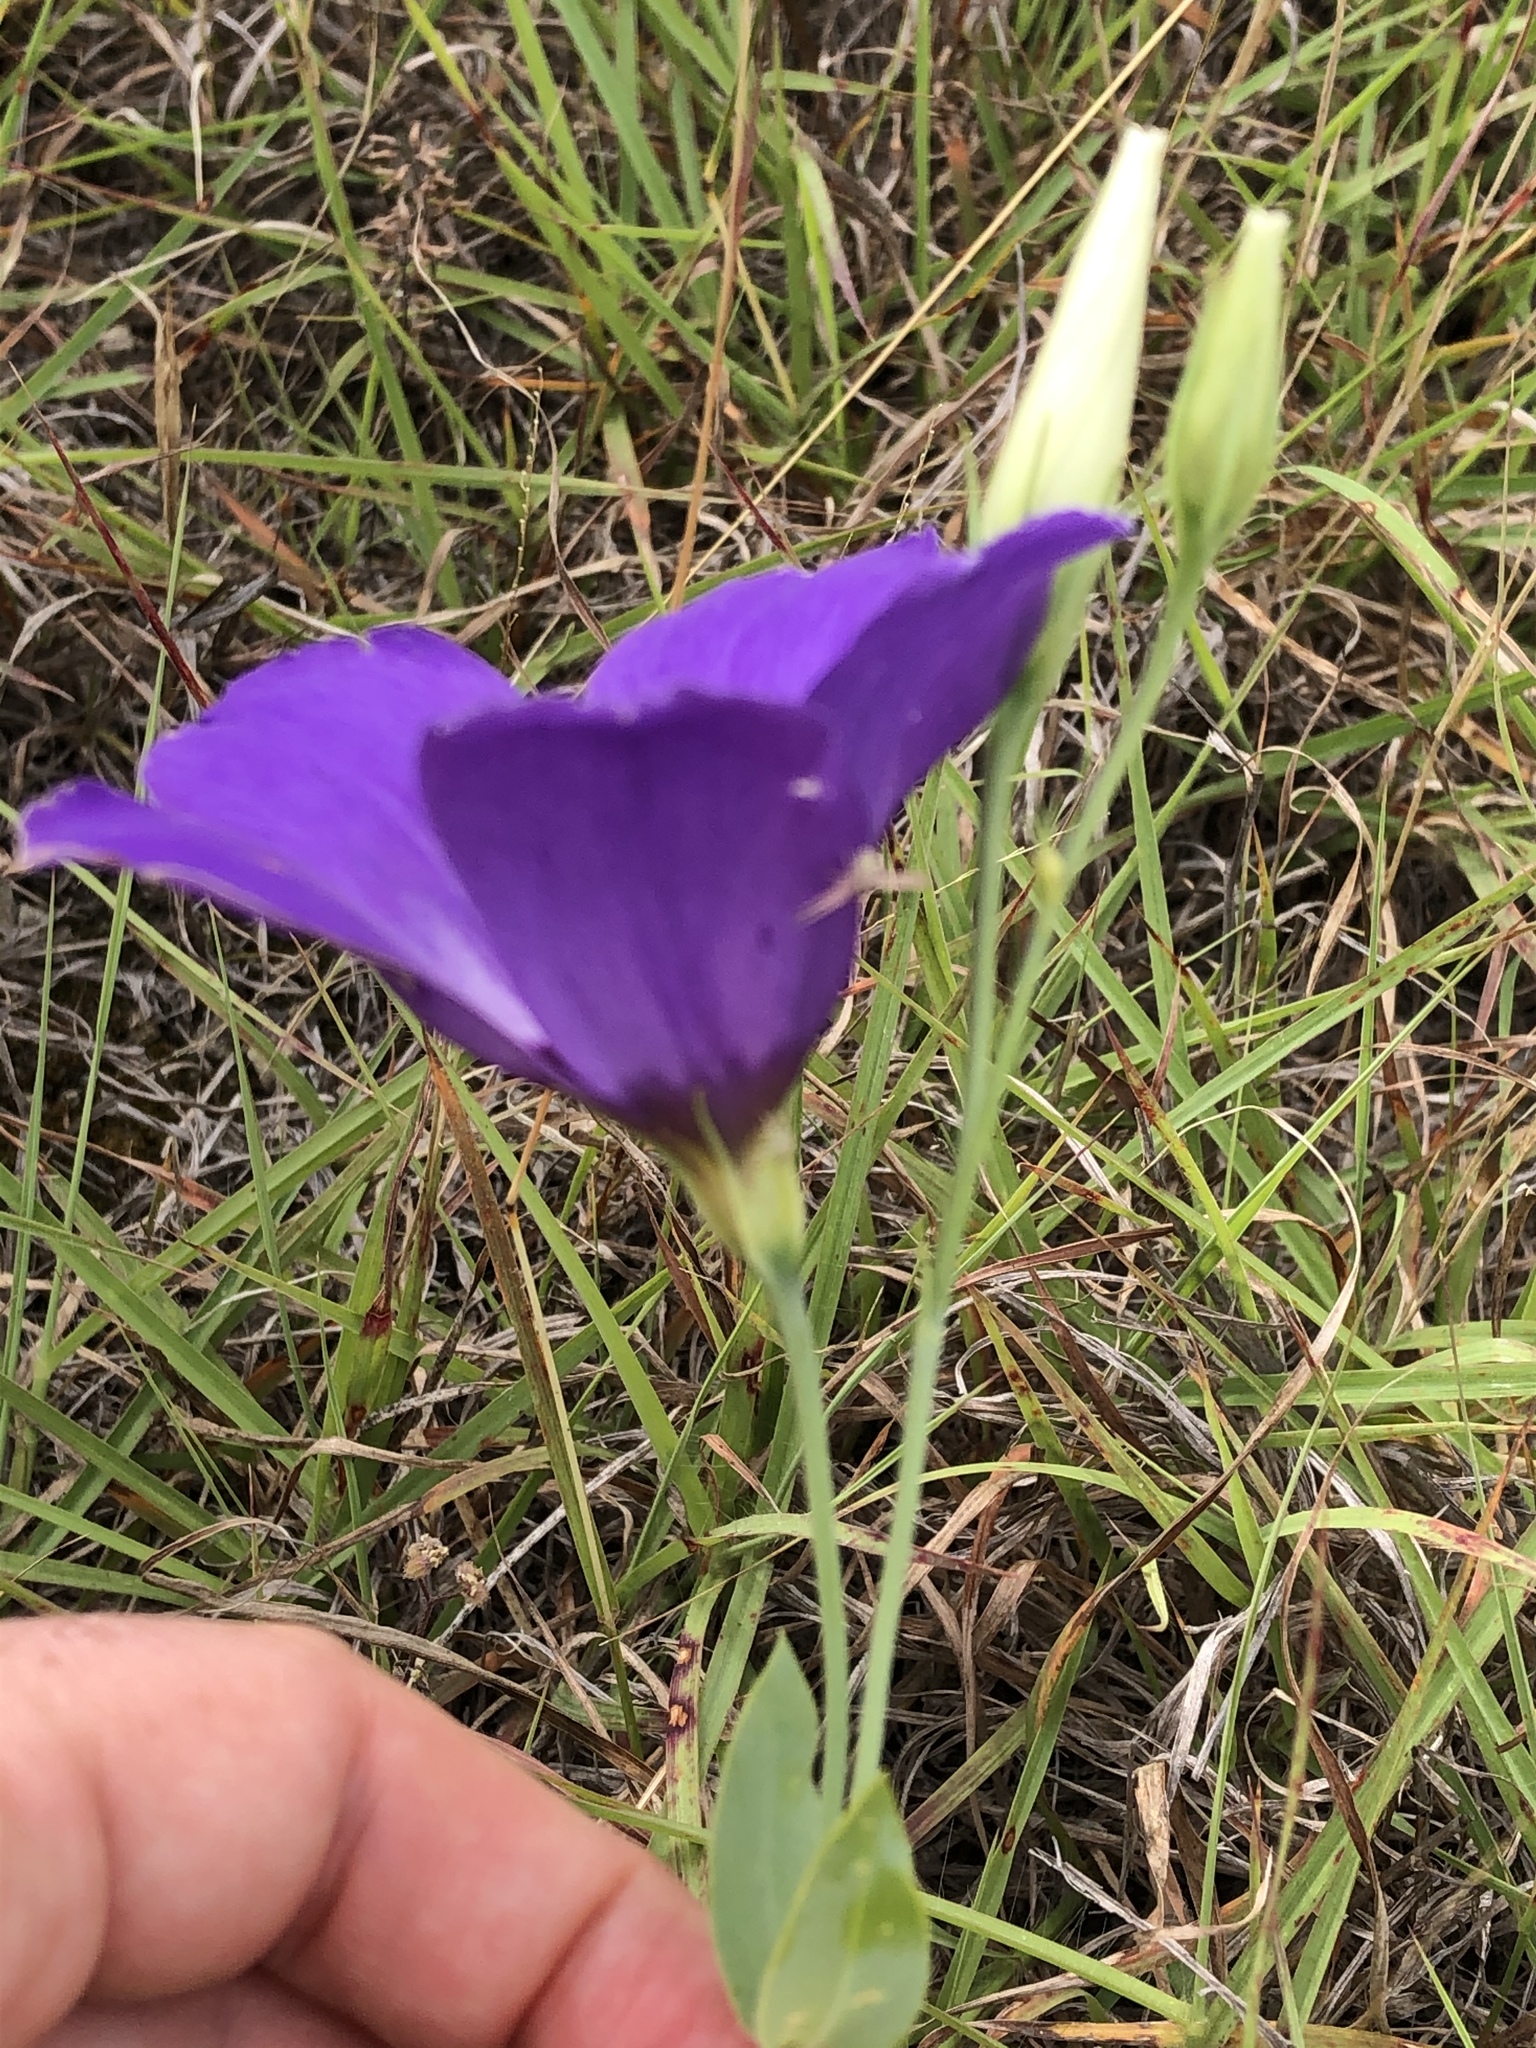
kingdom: Plantae
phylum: Tracheophyta
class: Magnoliopsida
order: Gentianales
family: Gentianaceae
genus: Eustoma
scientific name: Eustoma russellianum
